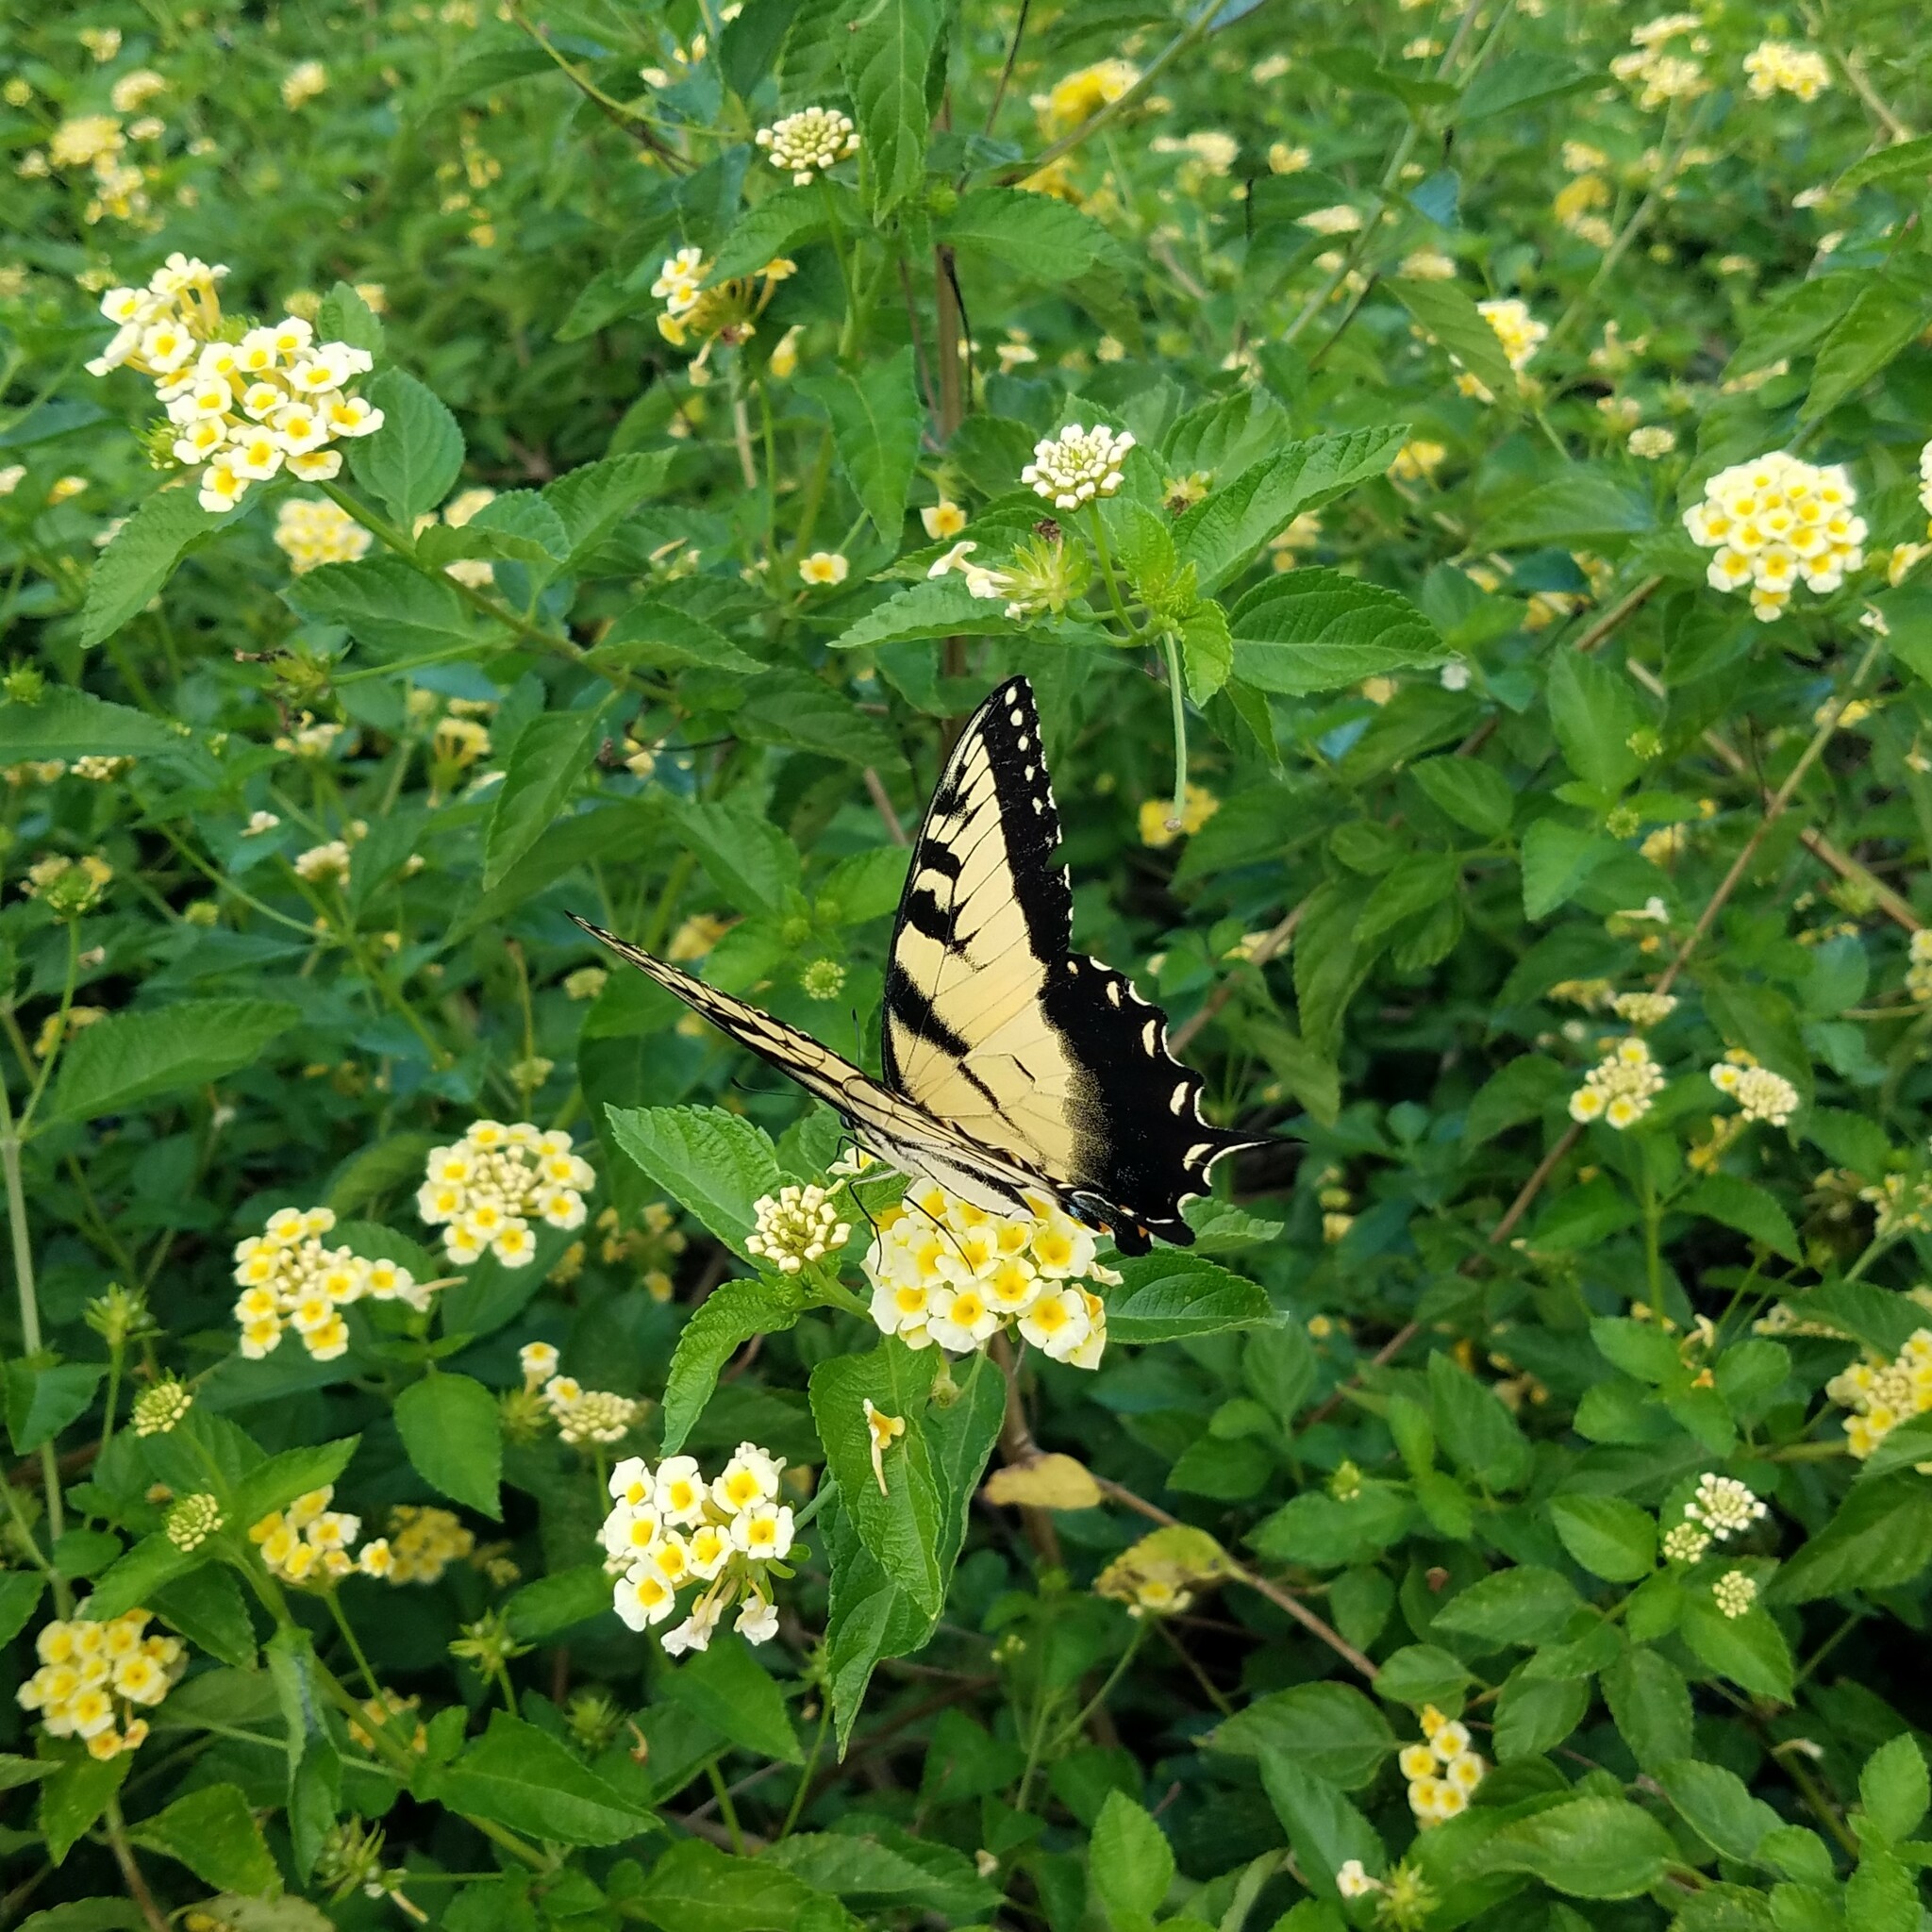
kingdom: Animalia
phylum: Arthropoda
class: Insecta
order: Lepidoptera
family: Papilionidae
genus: Papilio
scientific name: Papilio glaucus
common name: Tiger swallowtail
